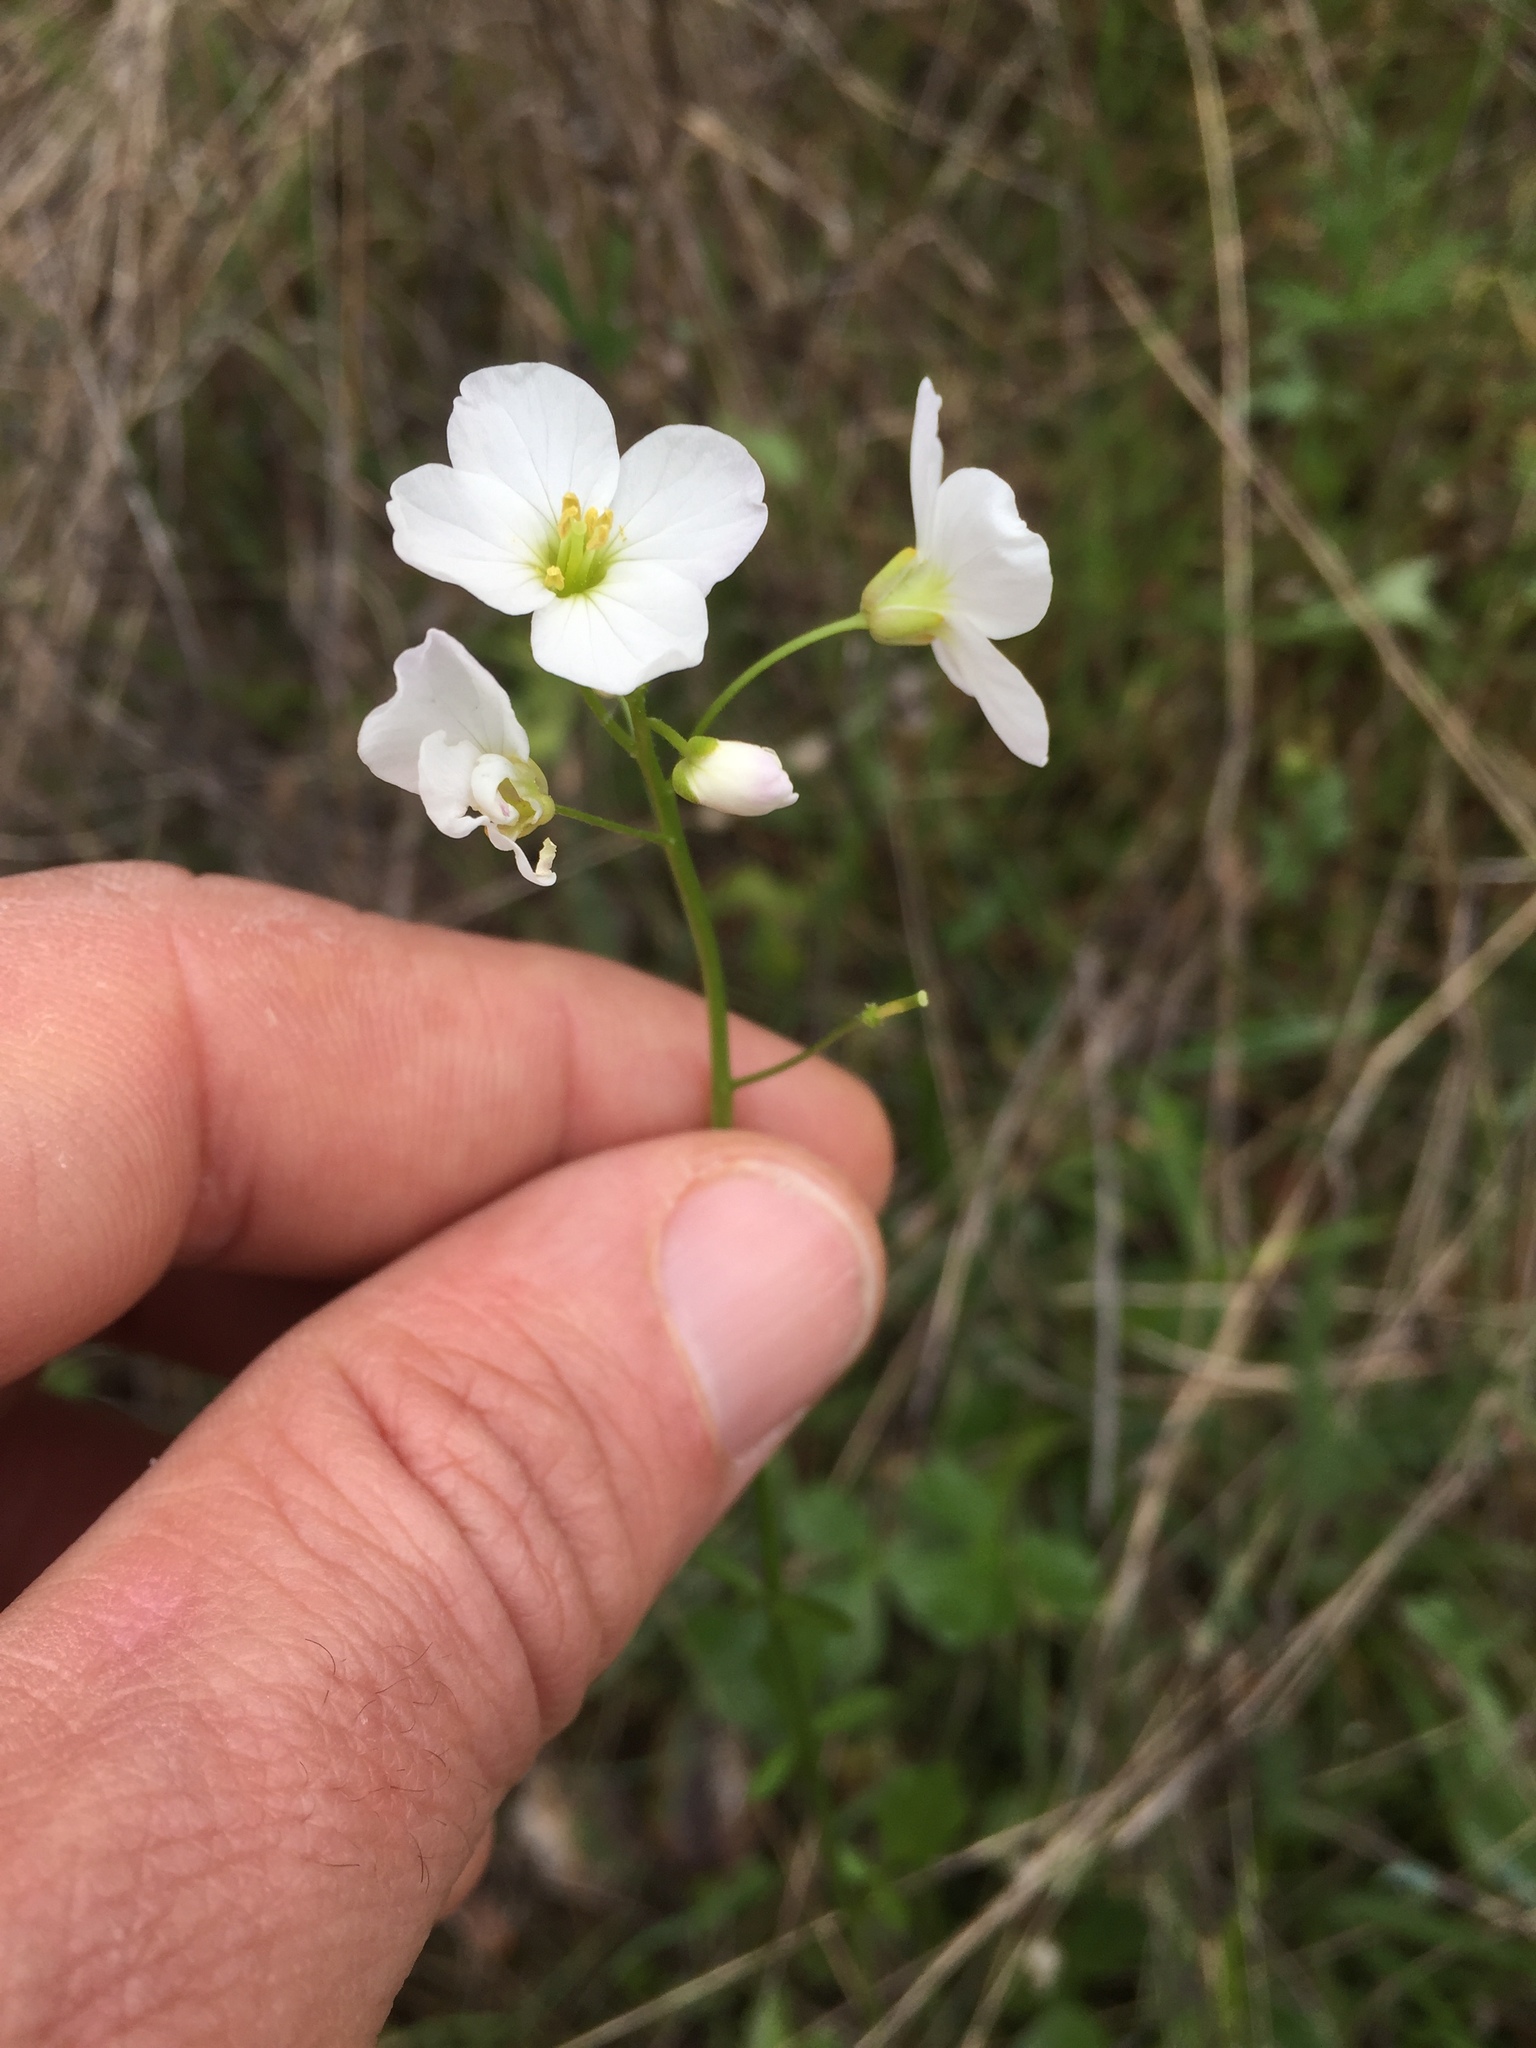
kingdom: Plantae
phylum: Tracheophyta
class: Magnoliopsida
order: Brassicales
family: Brassicaceae
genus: Cardamine
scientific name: Cardamine californica
